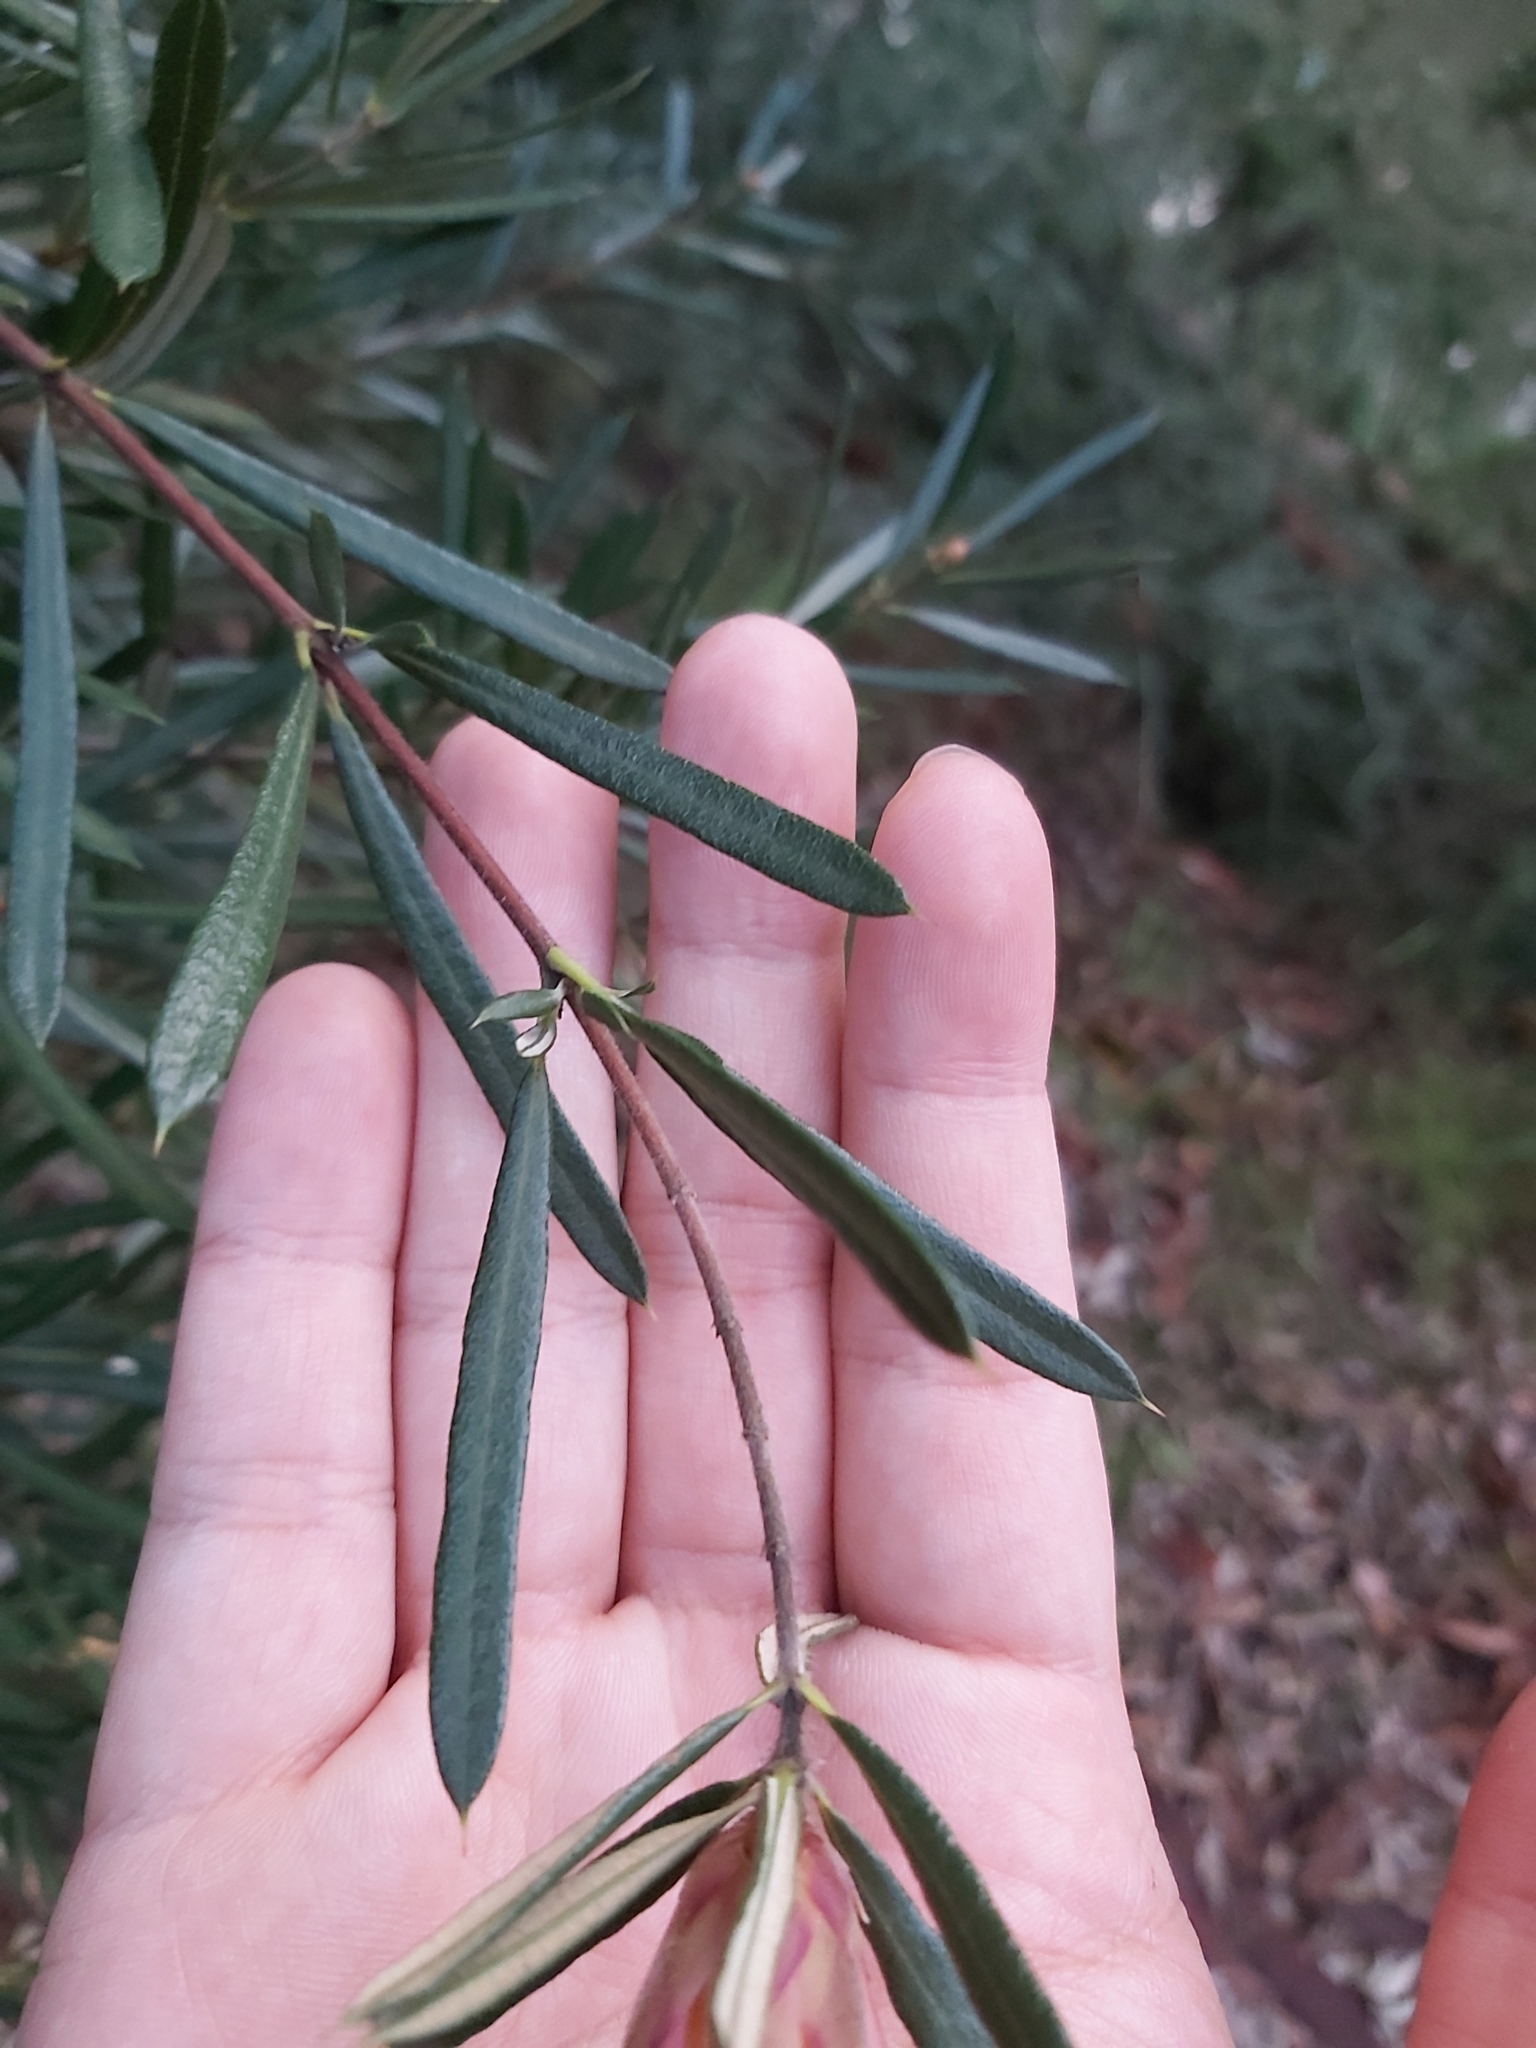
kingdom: Plantae
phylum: Tracheophyta
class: Magnoliopsida
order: Proteales
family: Proteaceae
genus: Lambertia
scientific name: Lambertia formosa
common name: Mountain-devil
